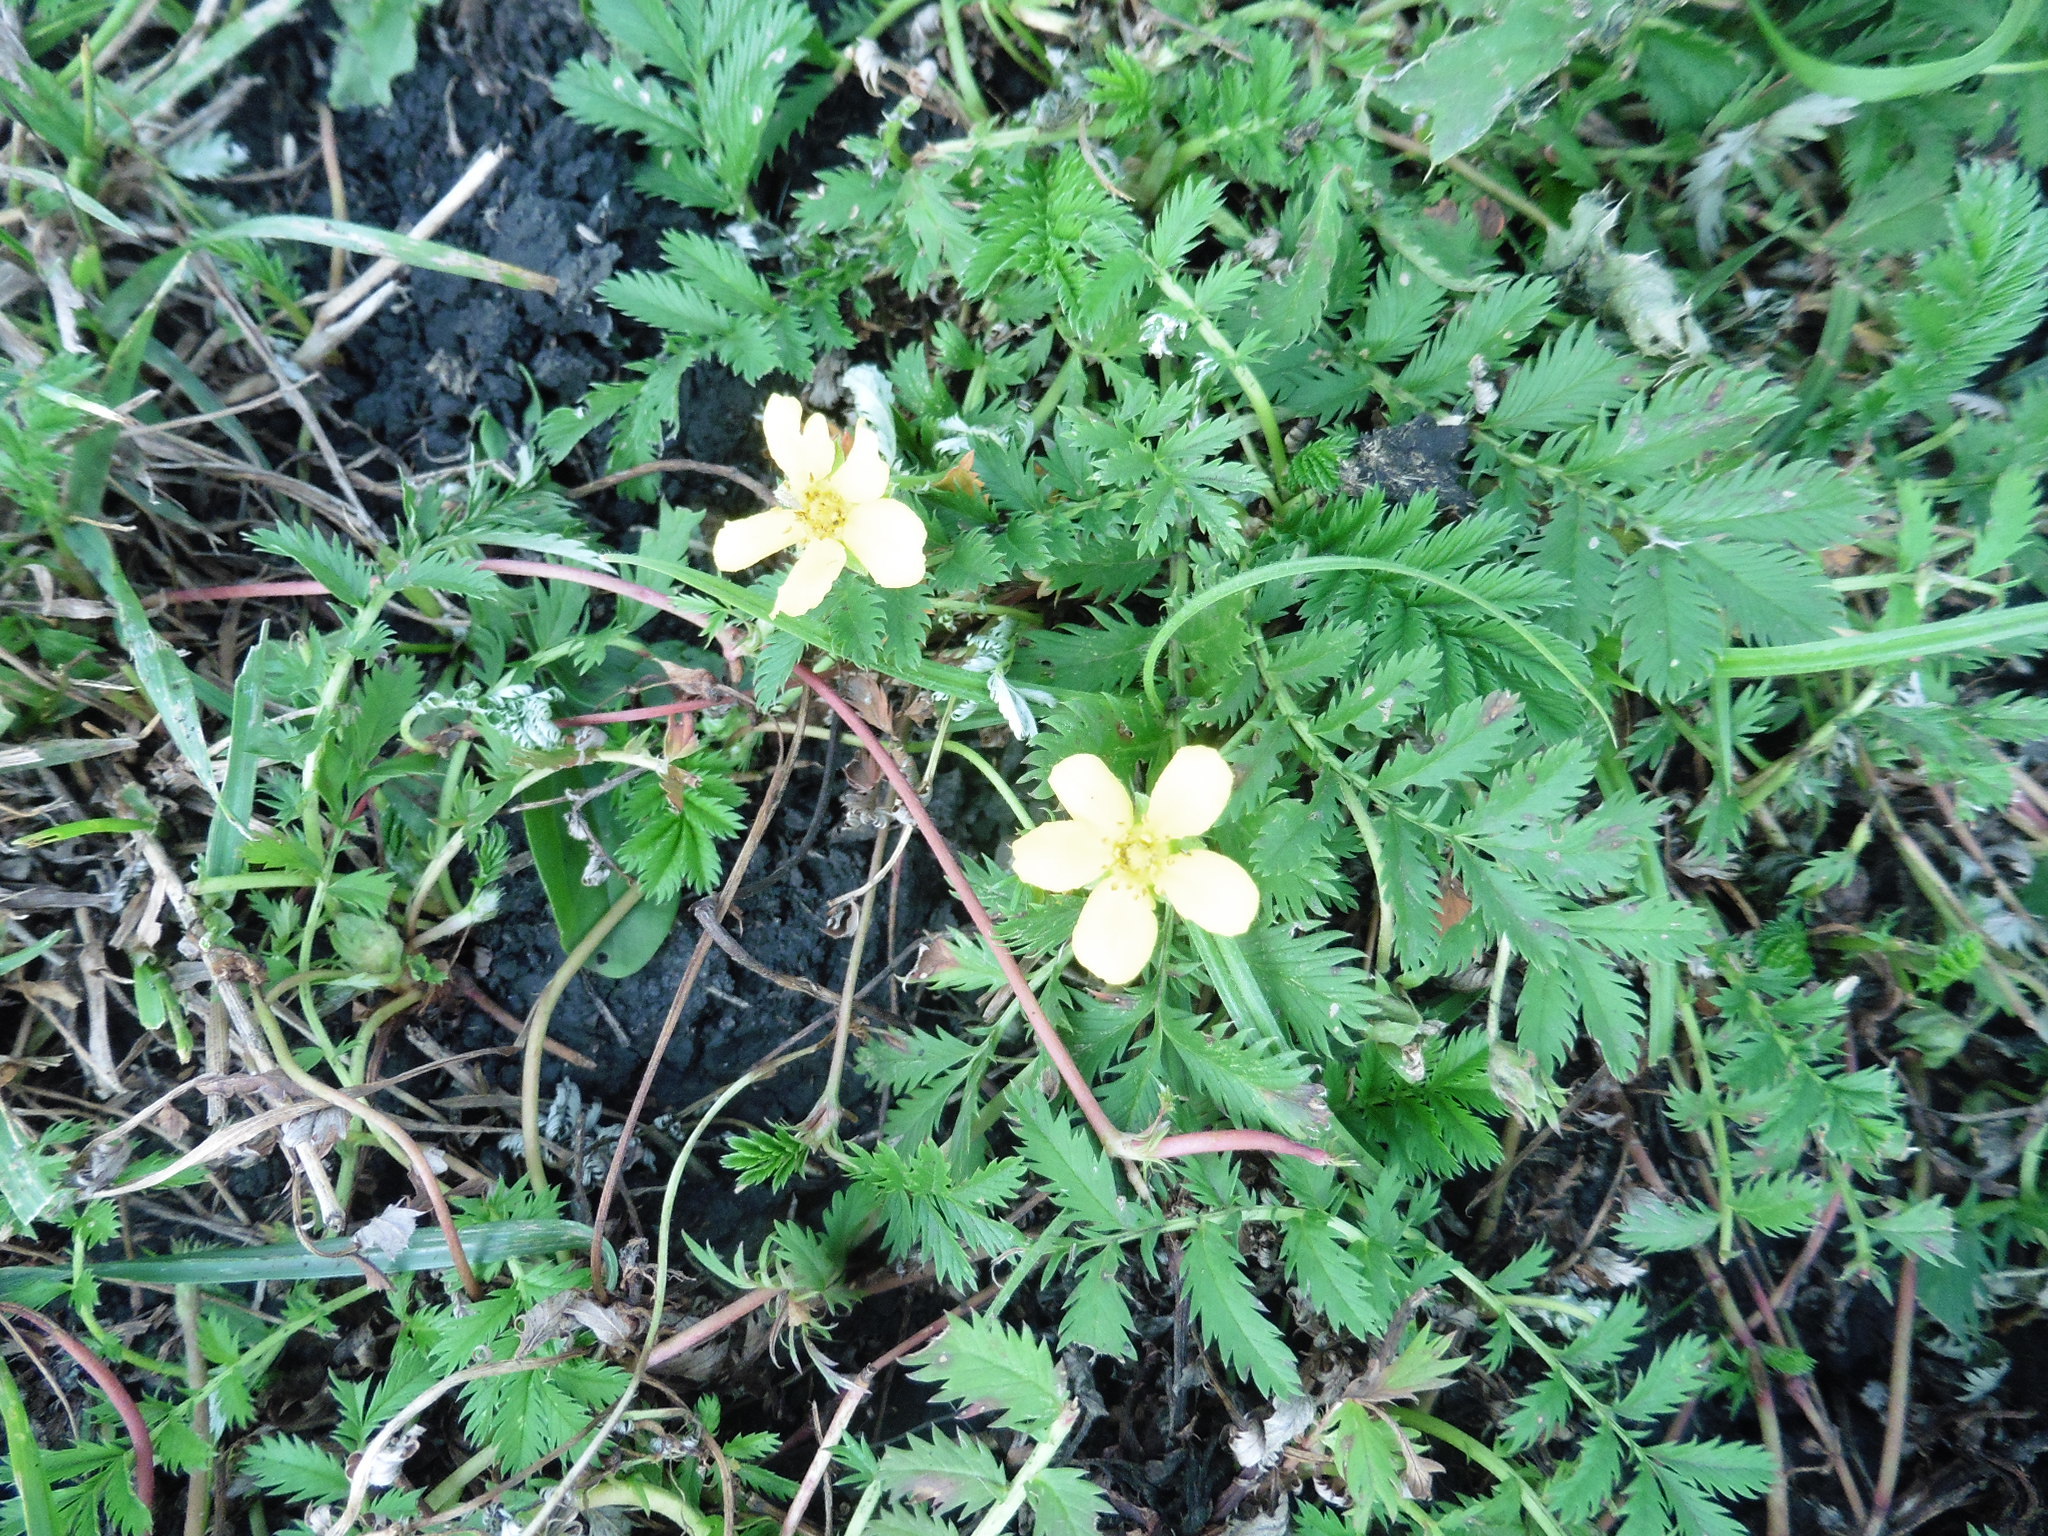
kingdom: Plantae
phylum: Tracheophyta
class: Magnoliopsida
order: Rosales
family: Rosaceae
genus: Argentina
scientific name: Argentina anserina
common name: Common silverweed
